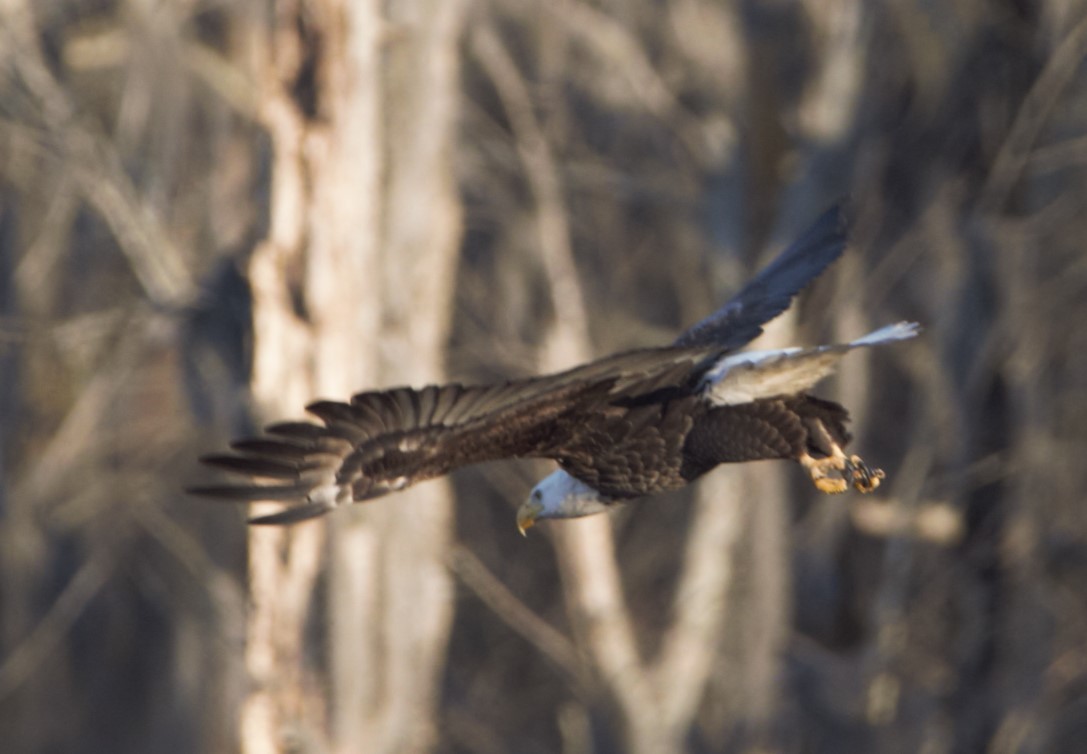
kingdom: Animalia
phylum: Chordata
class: Aves
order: Accipitriformes
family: Accipitridae
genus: Haliaeetus
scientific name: Haliaeetus leucocephalus
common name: Bald eagle
